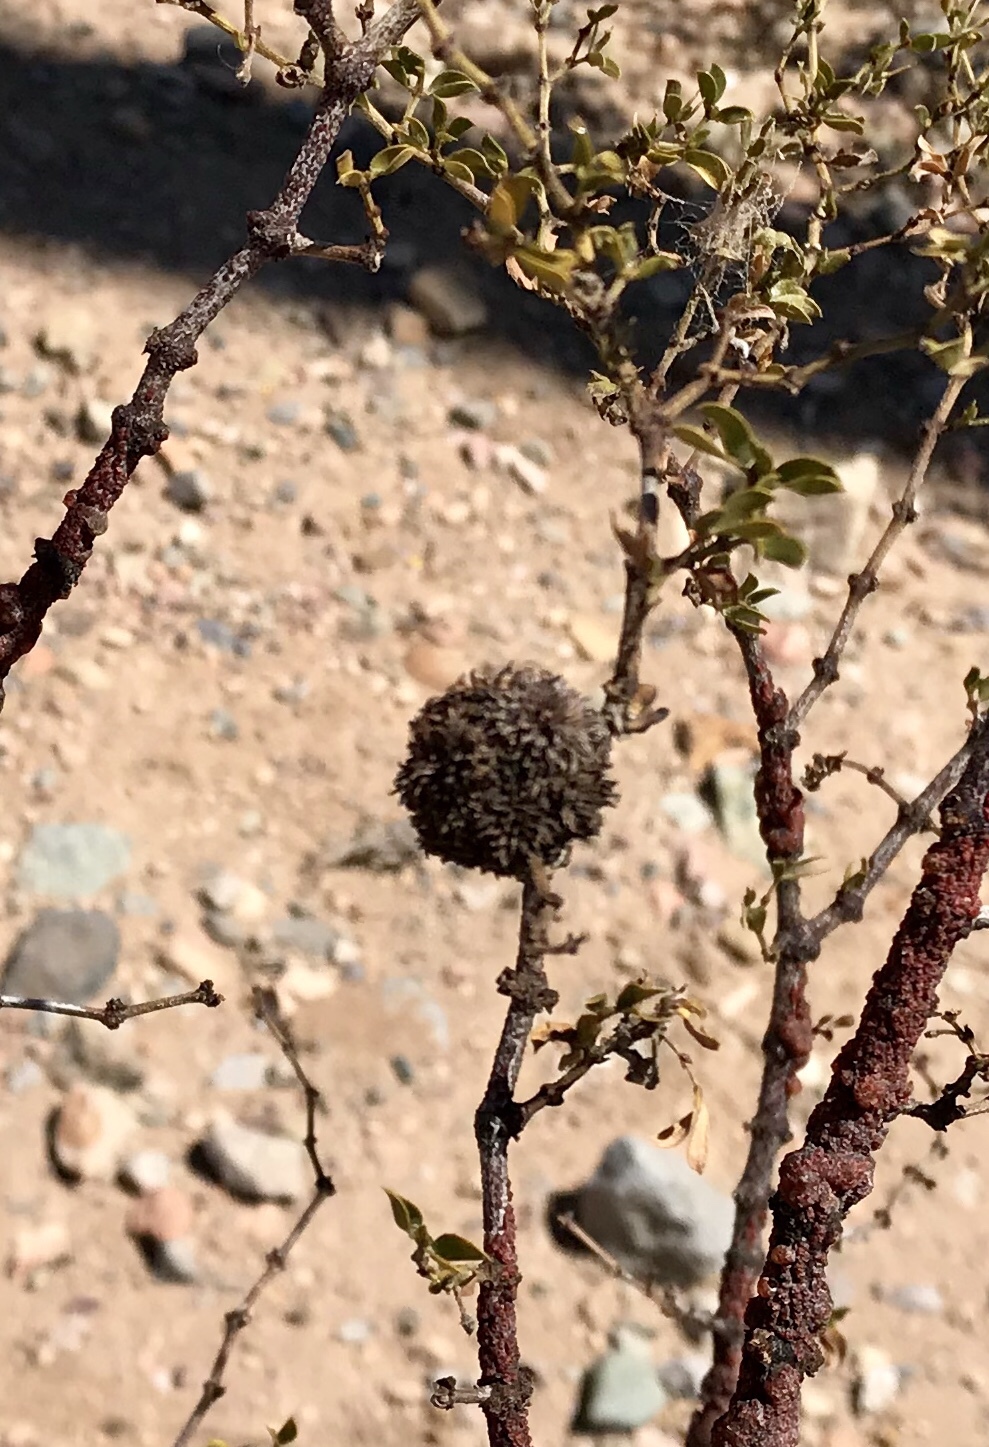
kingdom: Animalia
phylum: Arthropoda
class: Insecta
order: Diptera
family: Cecidomyiidae
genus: Asphondylia
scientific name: Asphondylia auripila
